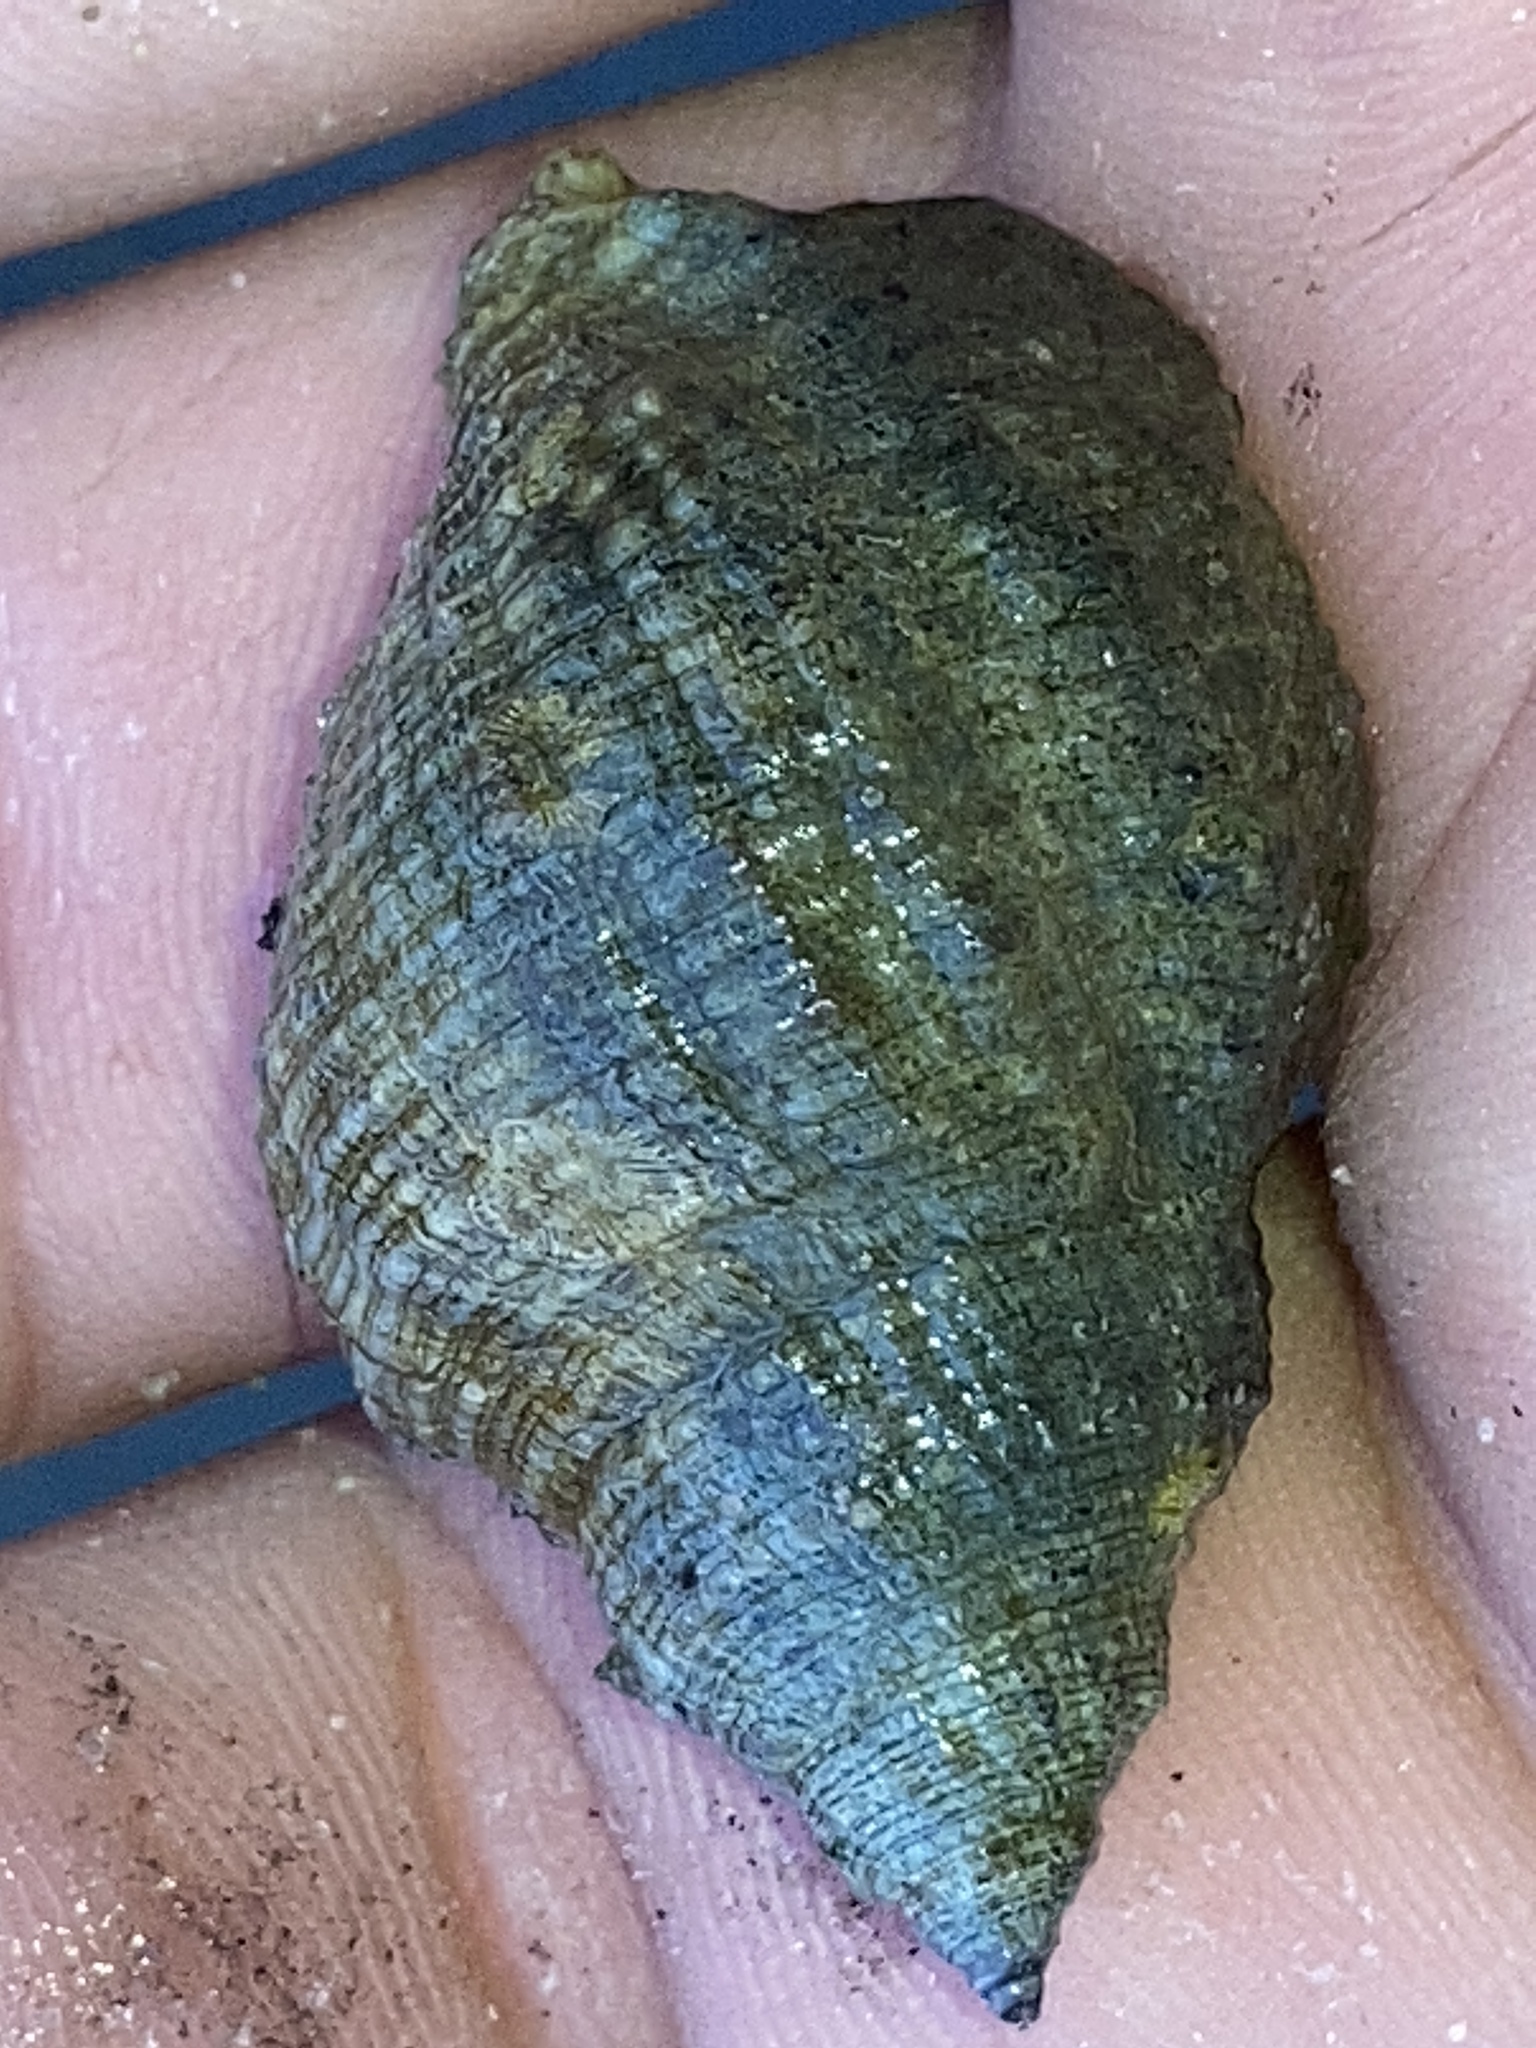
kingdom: Animalia
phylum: Mollusca
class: Gastropoda
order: Neogastropoda
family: Muricidae
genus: Stramonita
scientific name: Stramonita floridana
